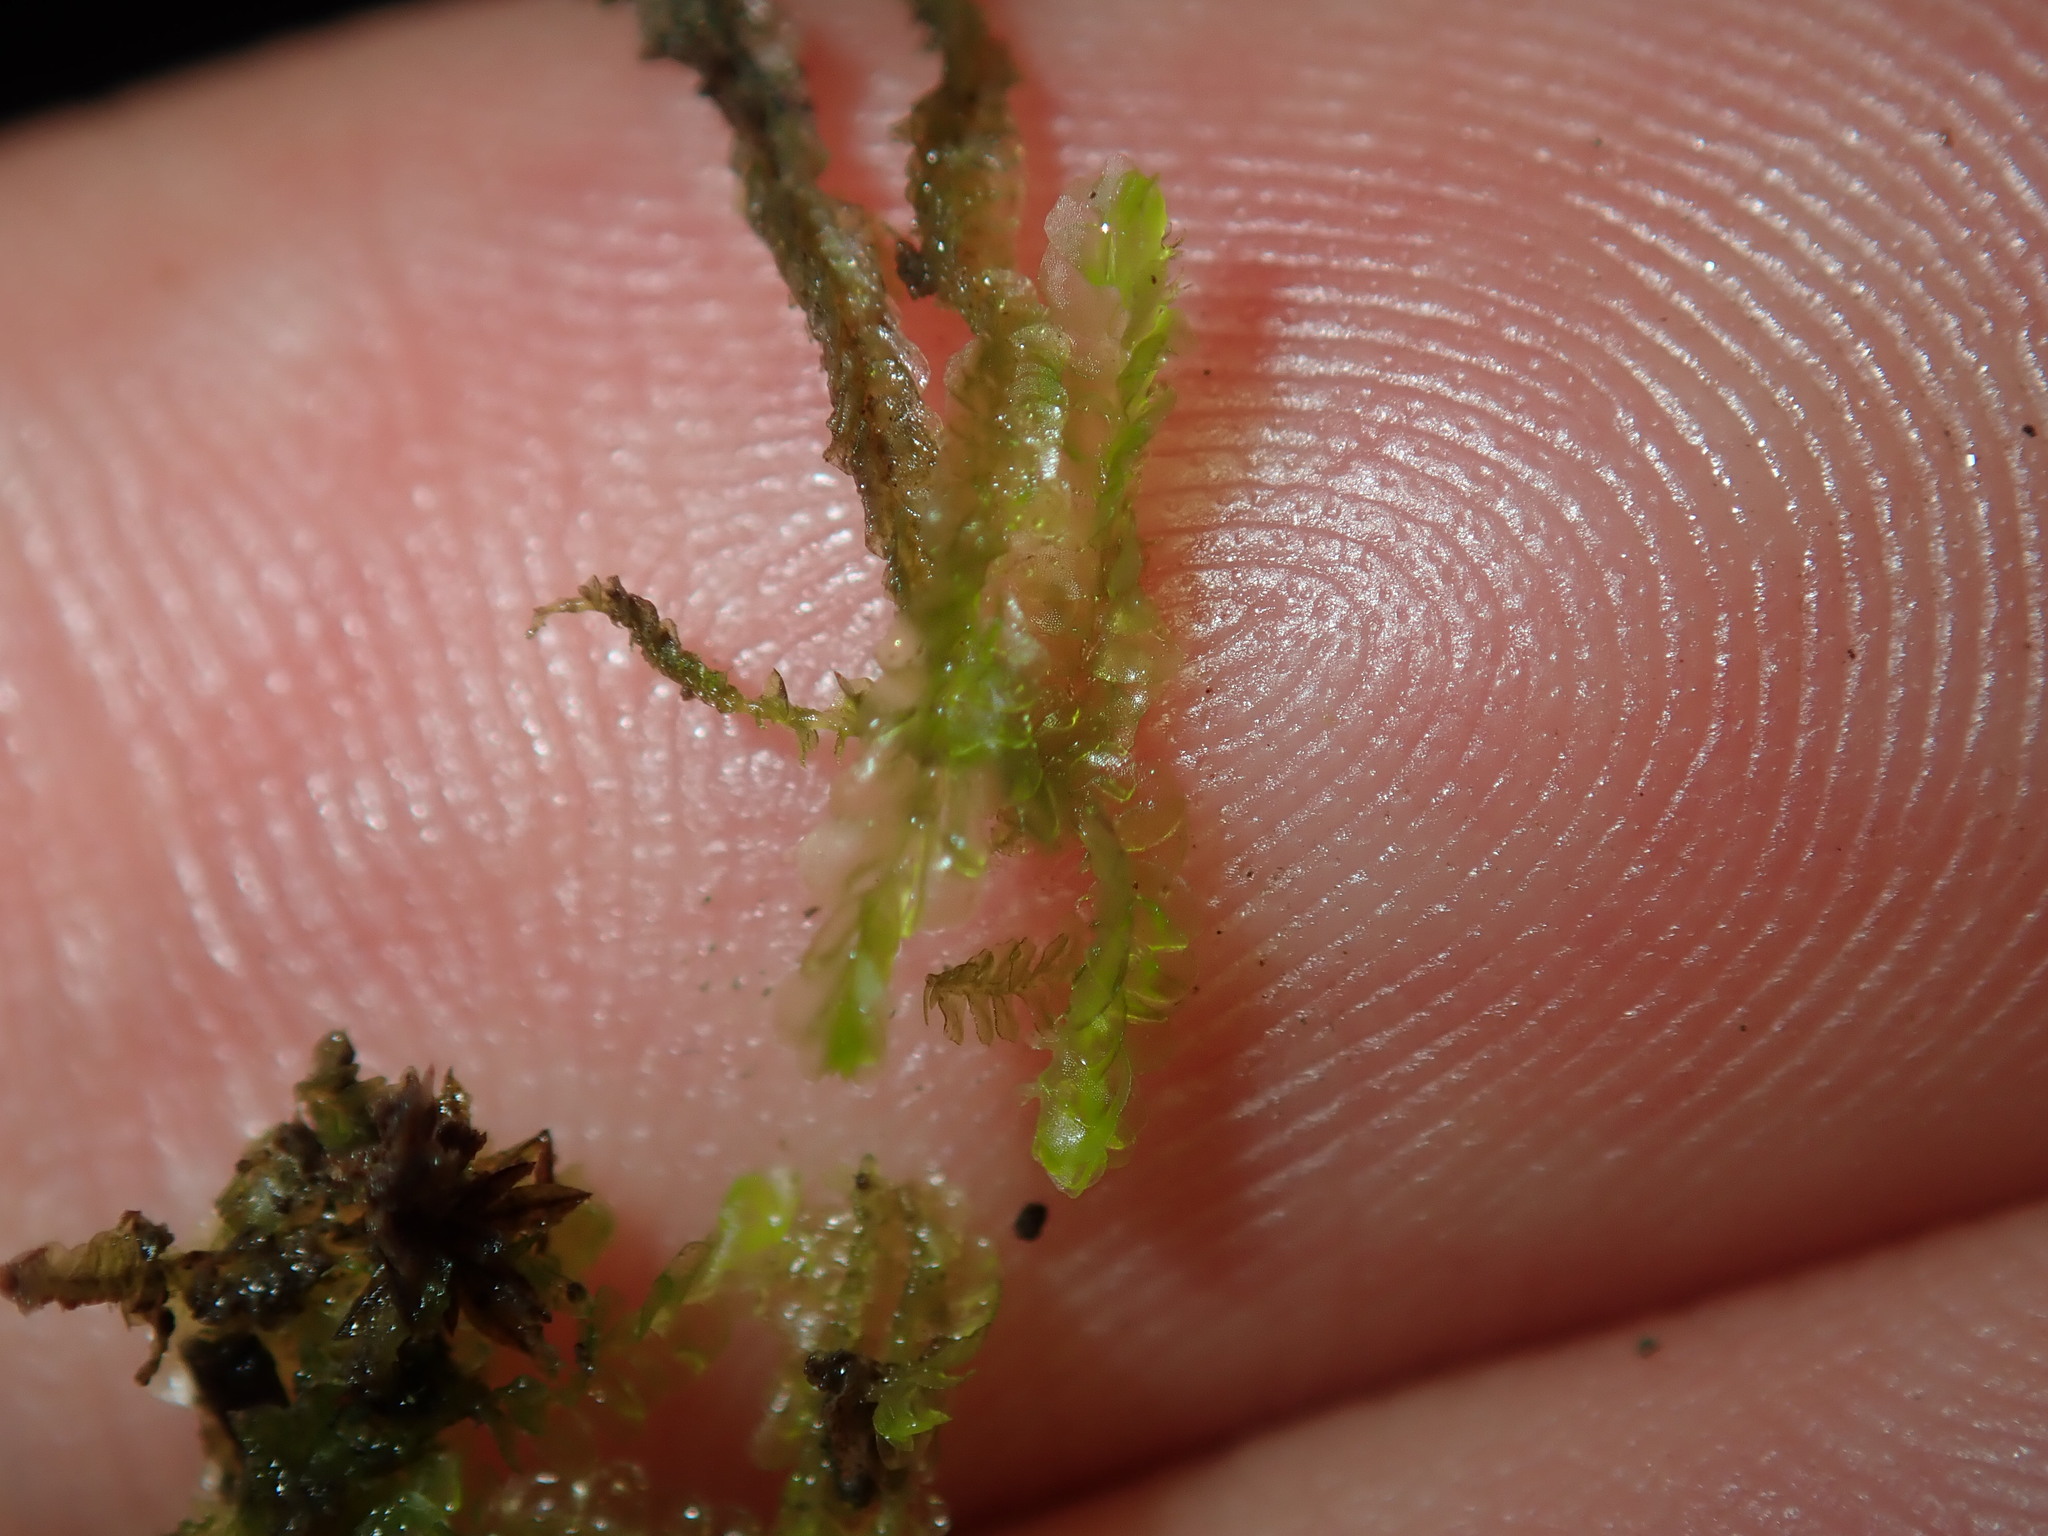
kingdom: Plantae
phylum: Marchantiophyta
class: Jungermanniopsida
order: Jungermanniales
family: Lophocoleaceae
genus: Lophocolea
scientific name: Lophocolea semiteres
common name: Southern crestwort
